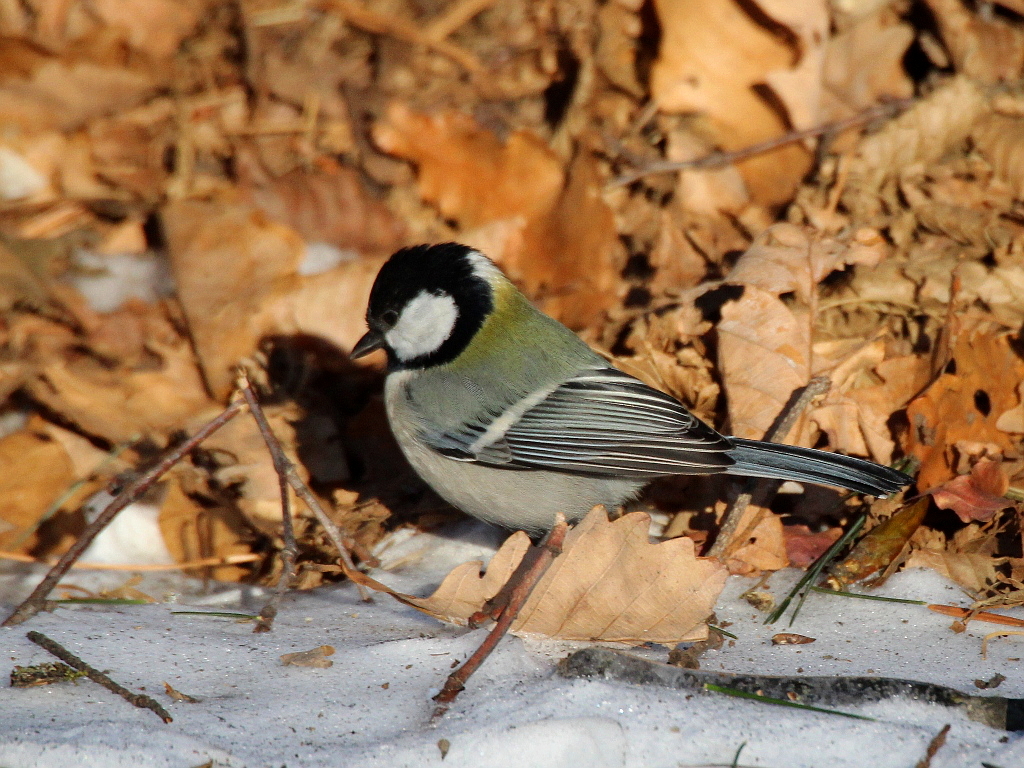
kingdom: Animalia
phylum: Chordata
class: Aves
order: Passeriformes
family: Paridae
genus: Parus
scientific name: Parus minor
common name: Japanese tit
